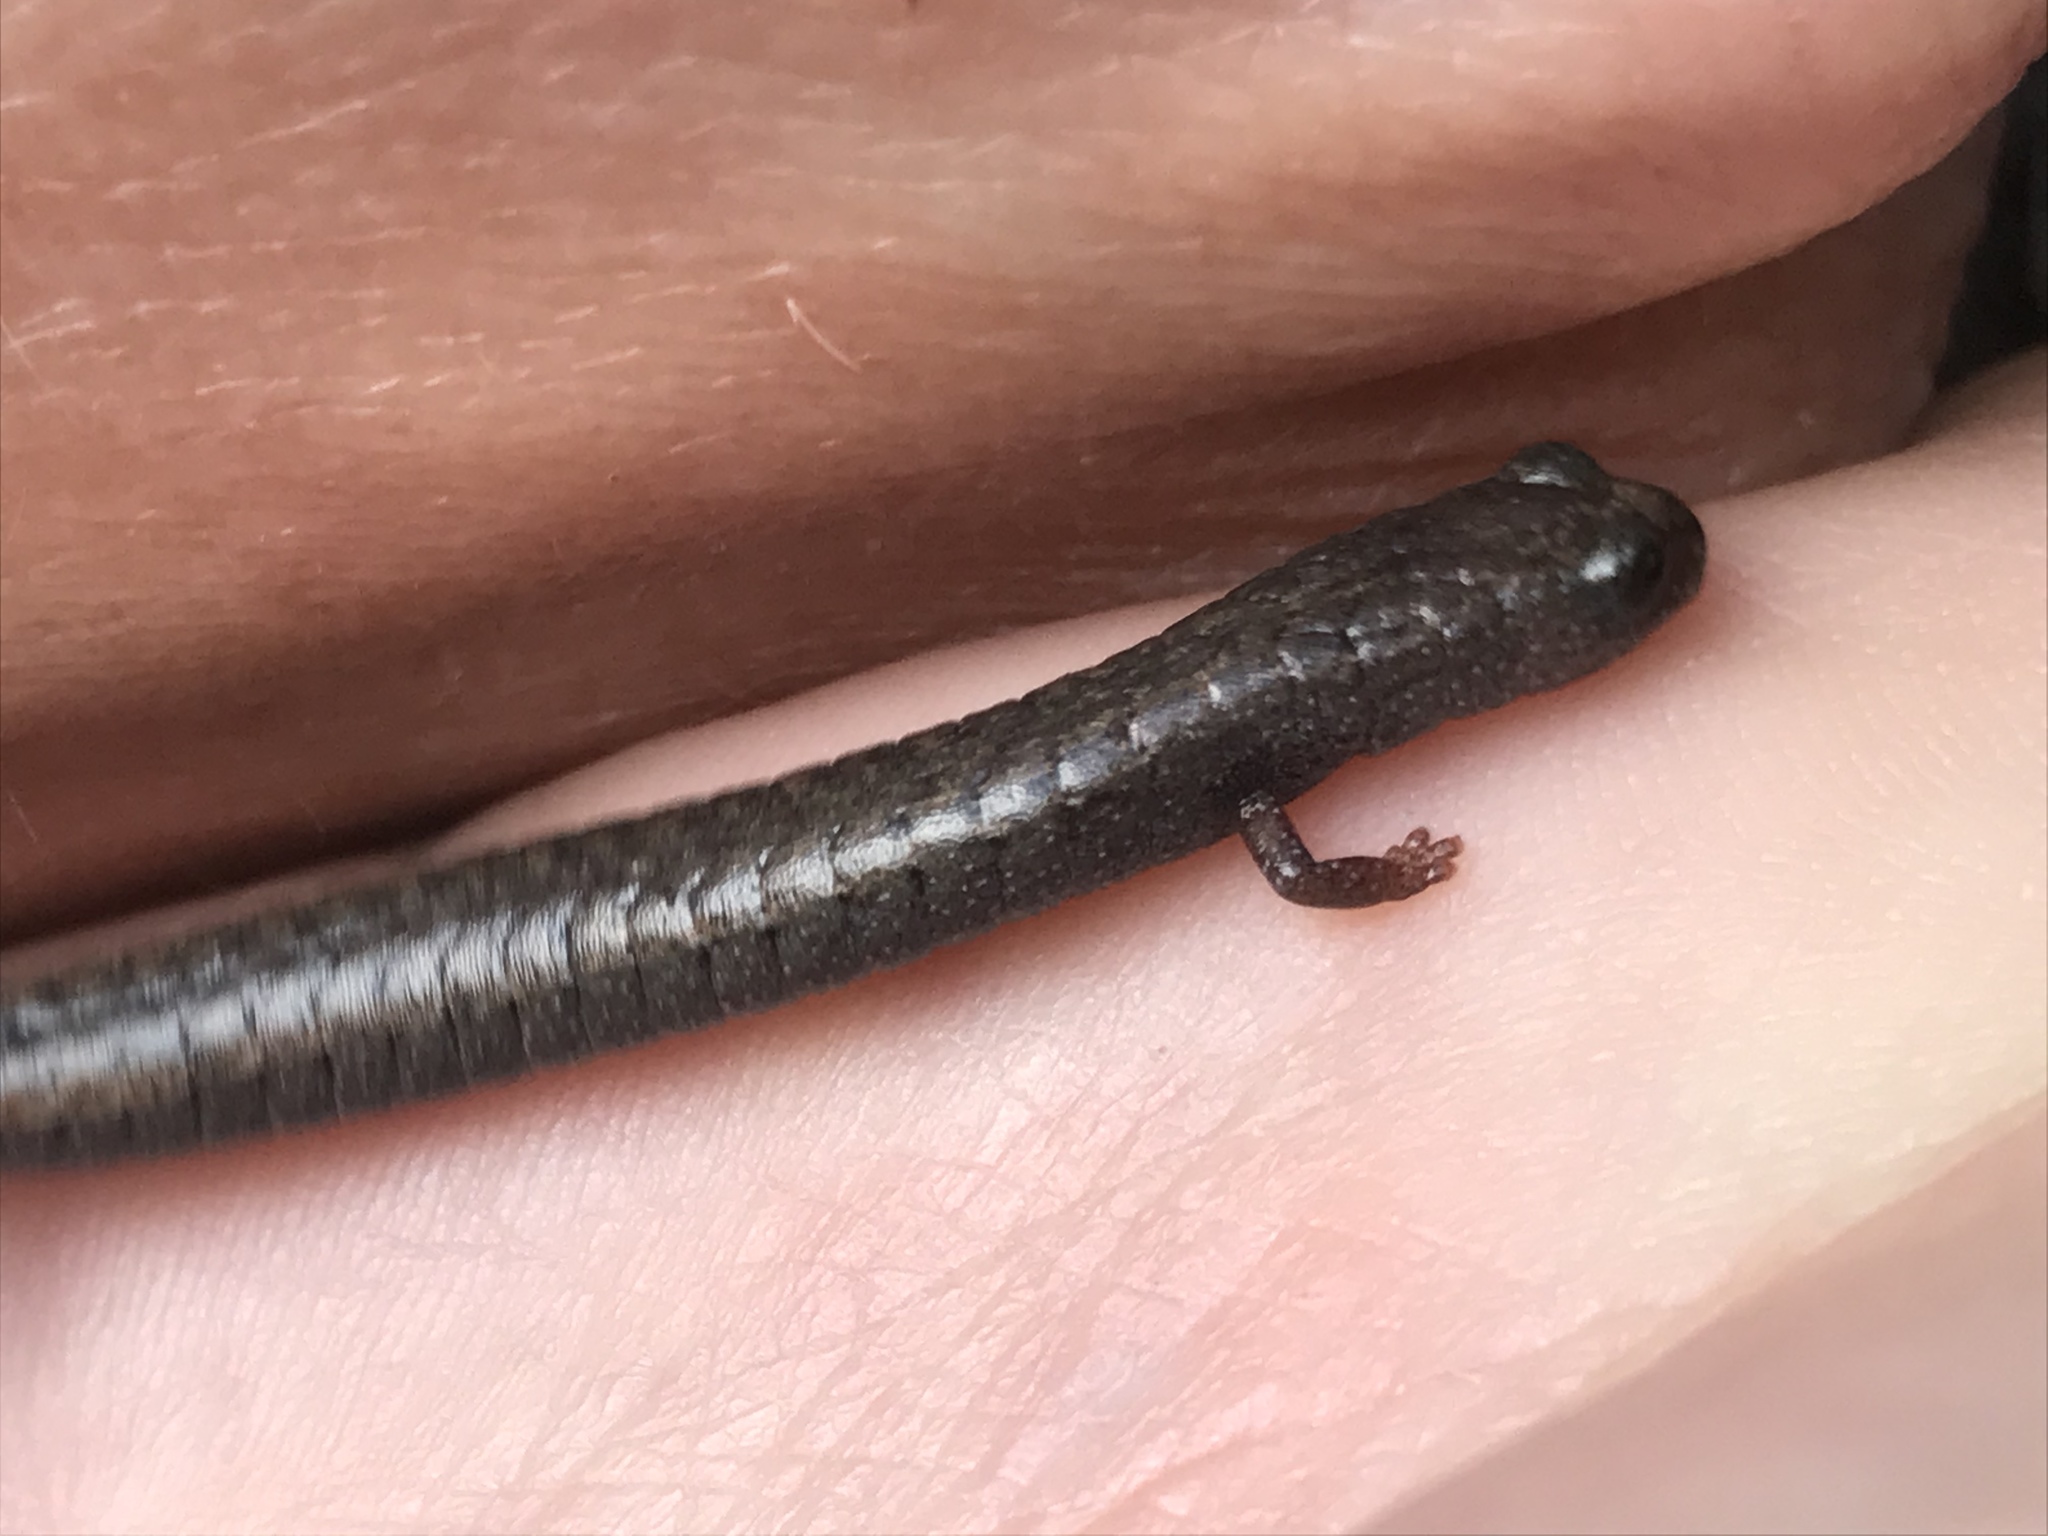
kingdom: Animalia
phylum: Chordata
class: Amphibia
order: Caudata
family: Plethodontidae
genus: Batrachoseps
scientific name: Batrachoseps nigriventris
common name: Black-bellied slender salamander
